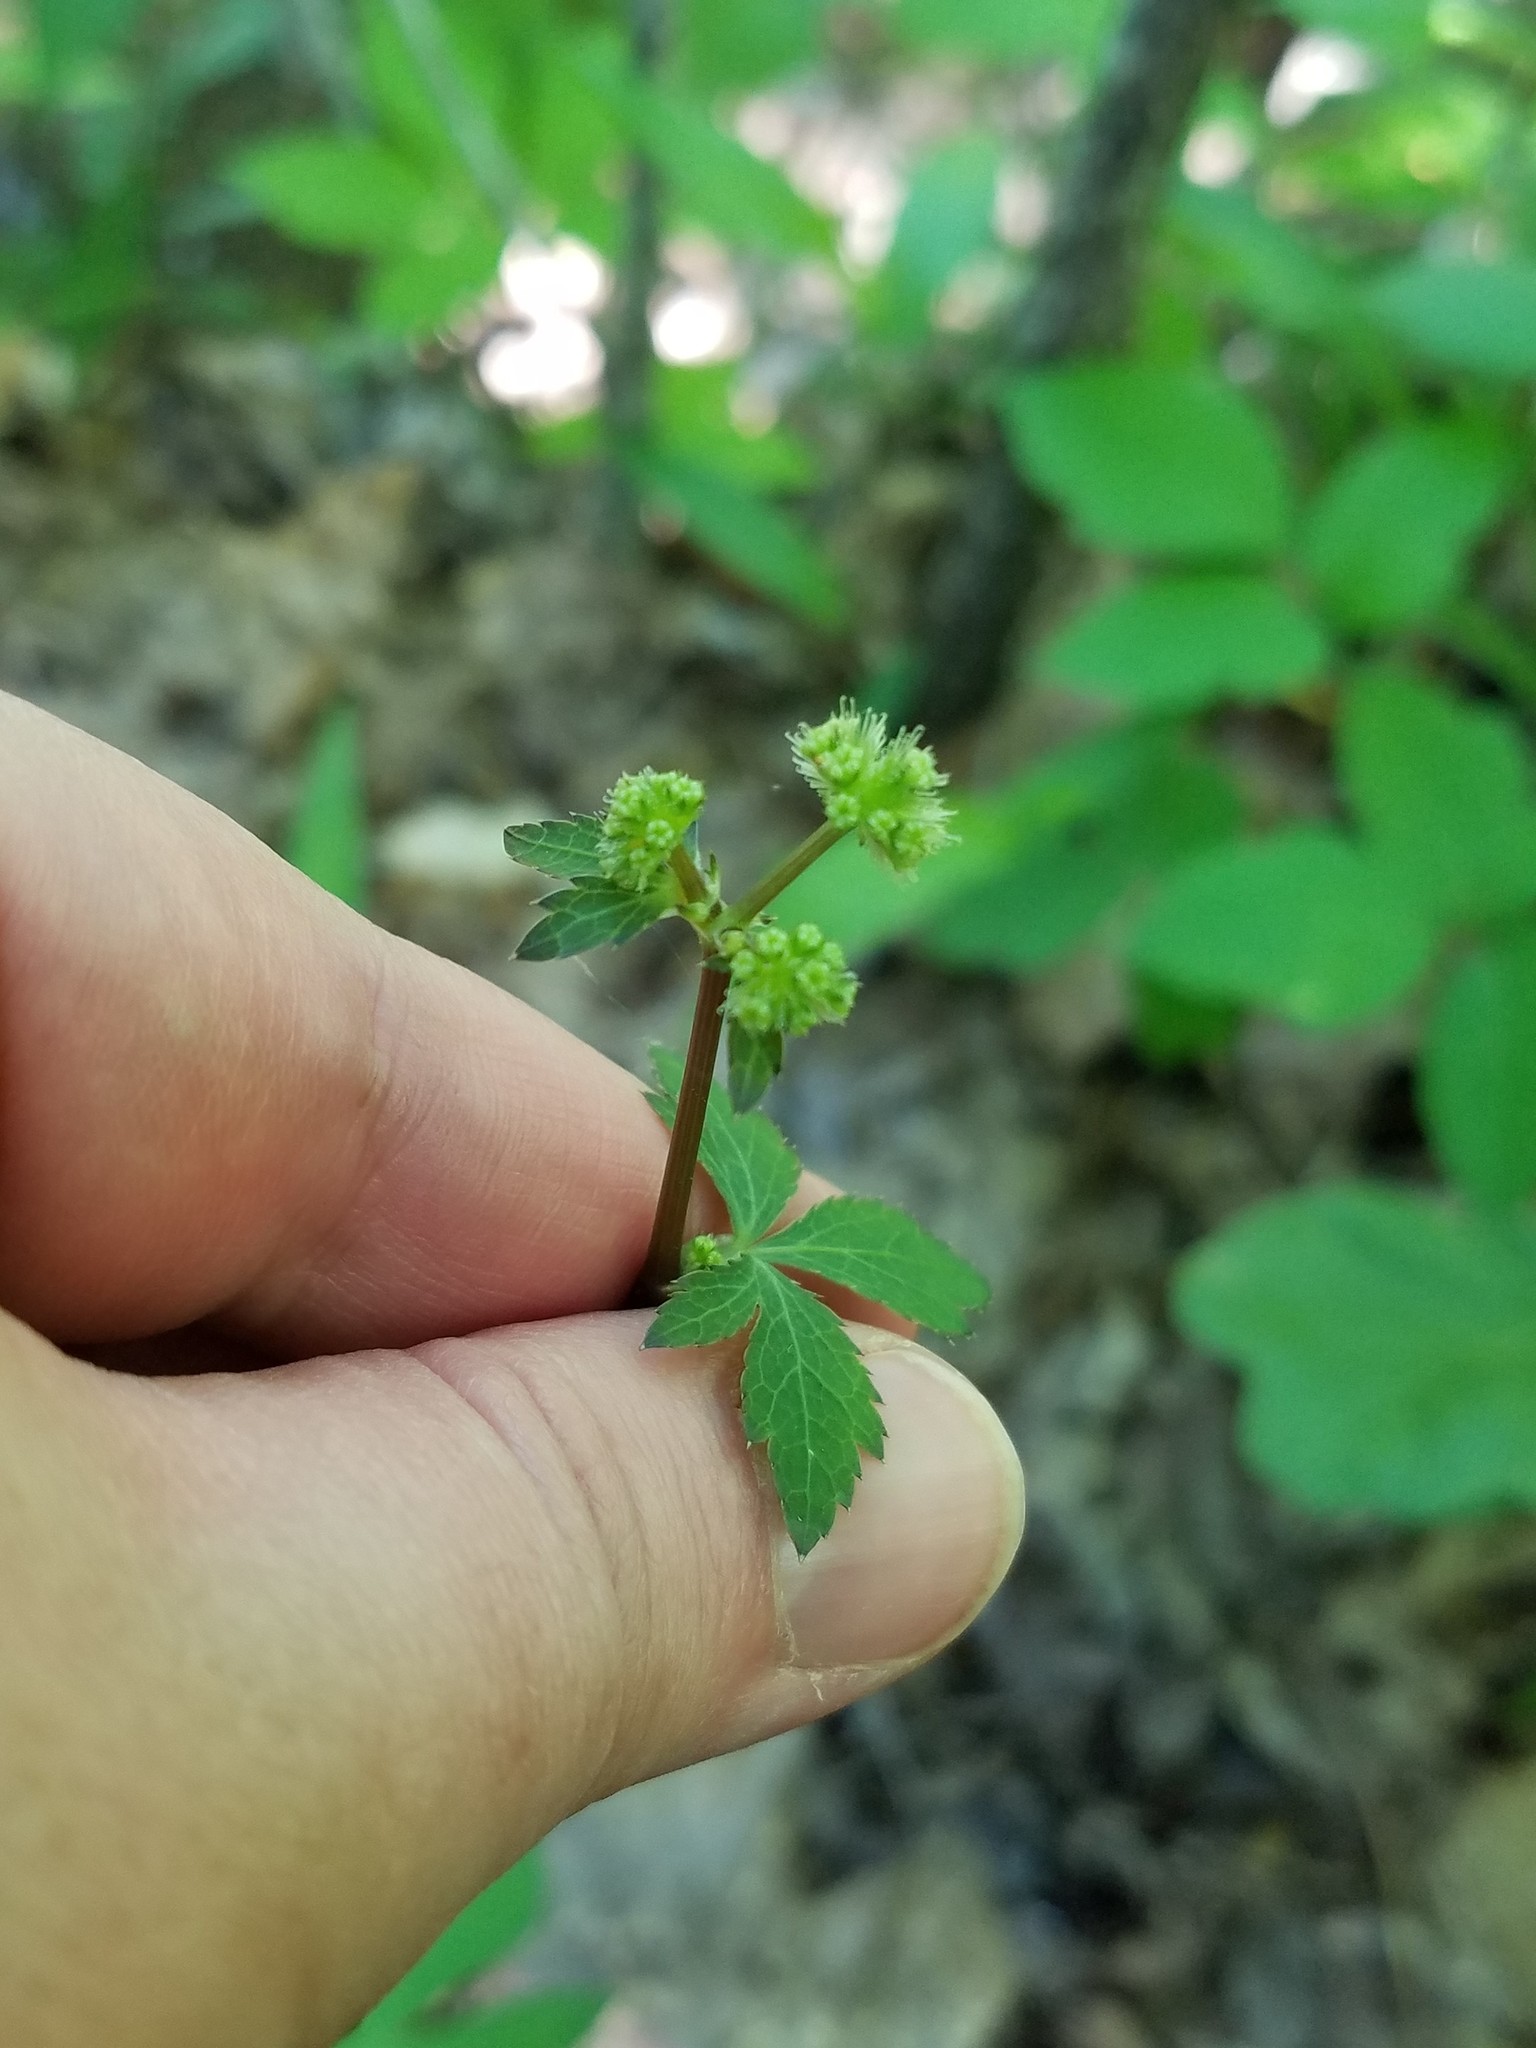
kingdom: Plantae
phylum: Tracheophyta
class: Magnoliopsida
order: Apiales
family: Apiaceae
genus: Sanicula
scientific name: Sanicula smallii
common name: Small's black snakeroot
